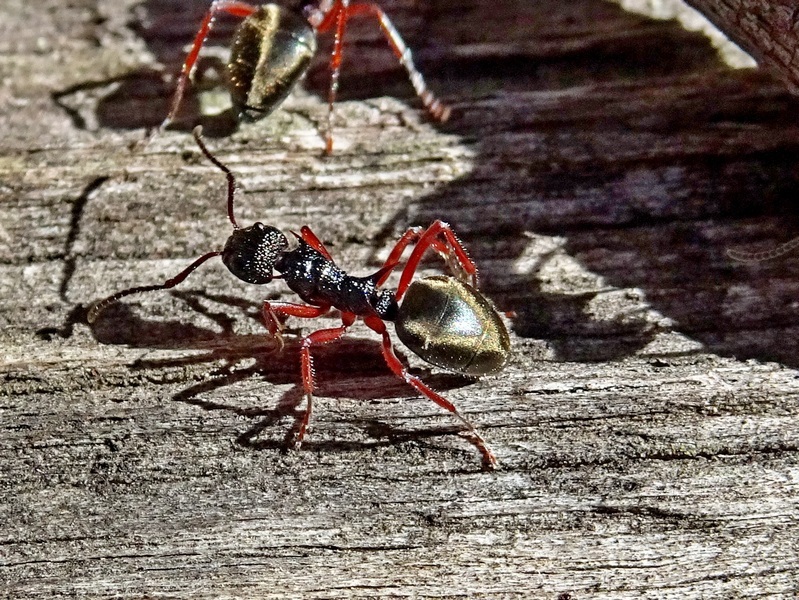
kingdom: Animalia
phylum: Arthropoda
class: Insecta
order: Hymenoptera
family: Formicidae
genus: Dolichoderus
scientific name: Dolichoderus doriae
